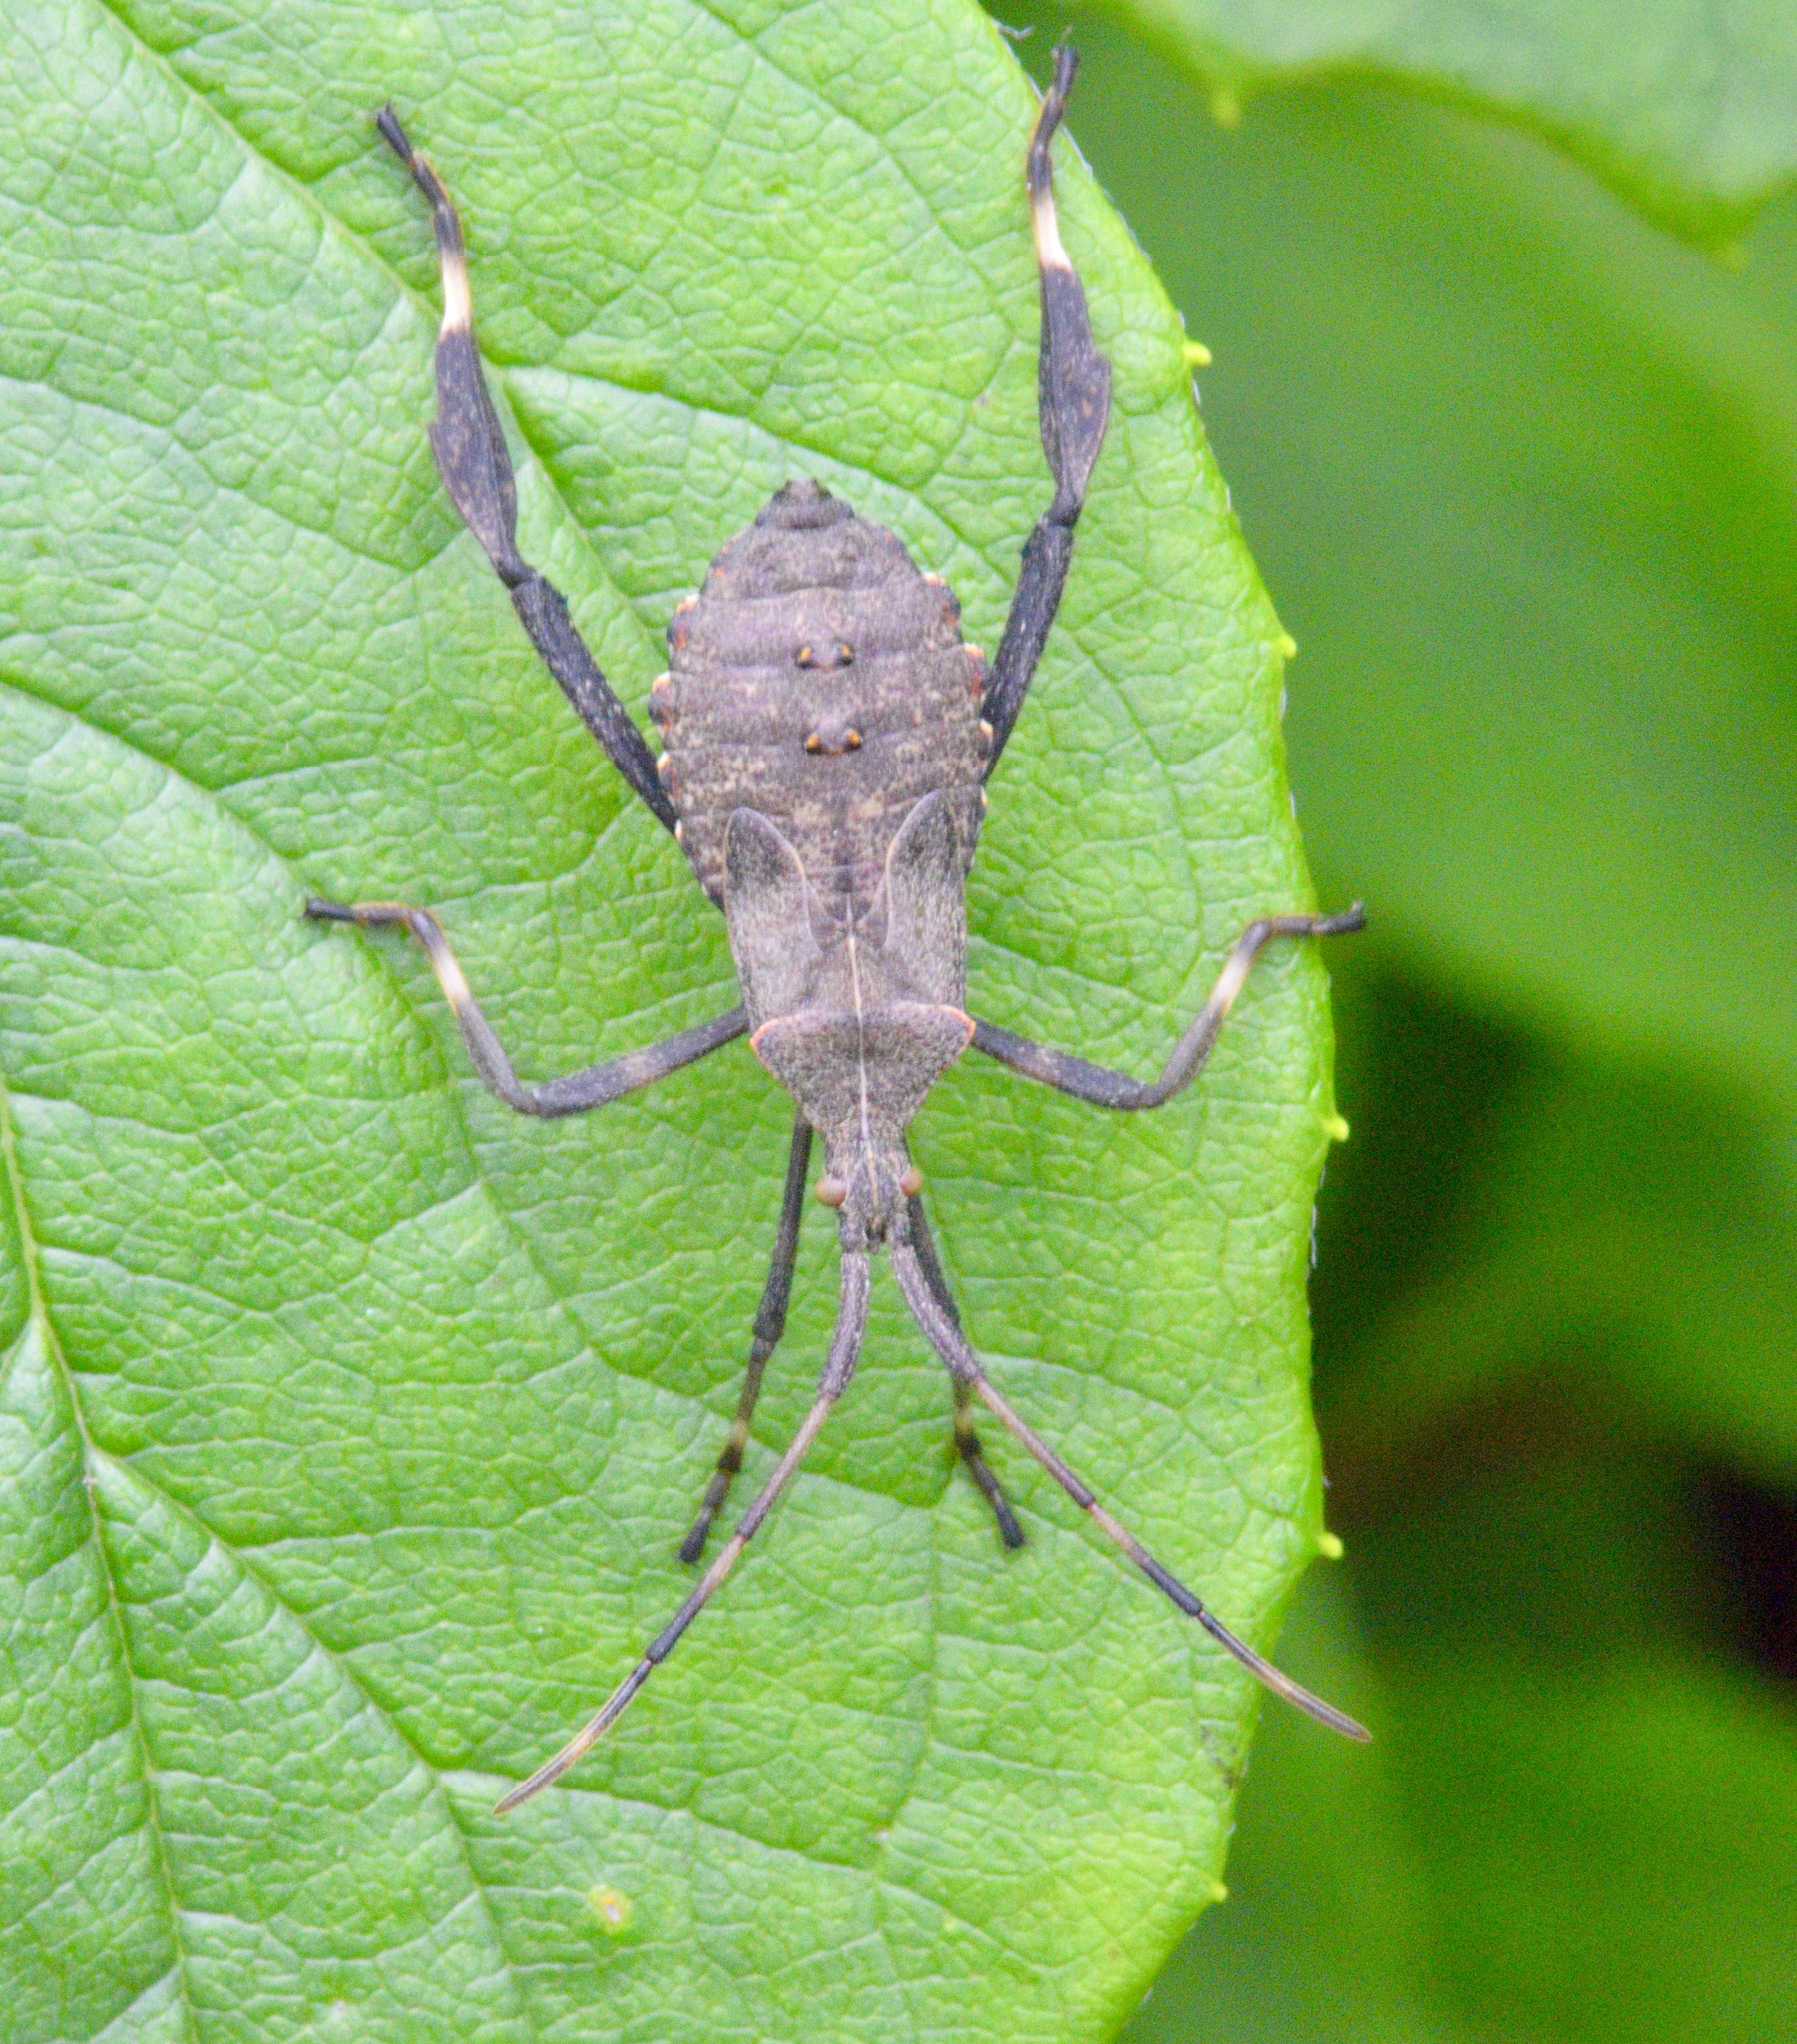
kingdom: Animalia
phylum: Arthropoda
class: Insecta
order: Hemiptera
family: Coreidae
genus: Acanthocephala
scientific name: Acanthocephala terminalis
